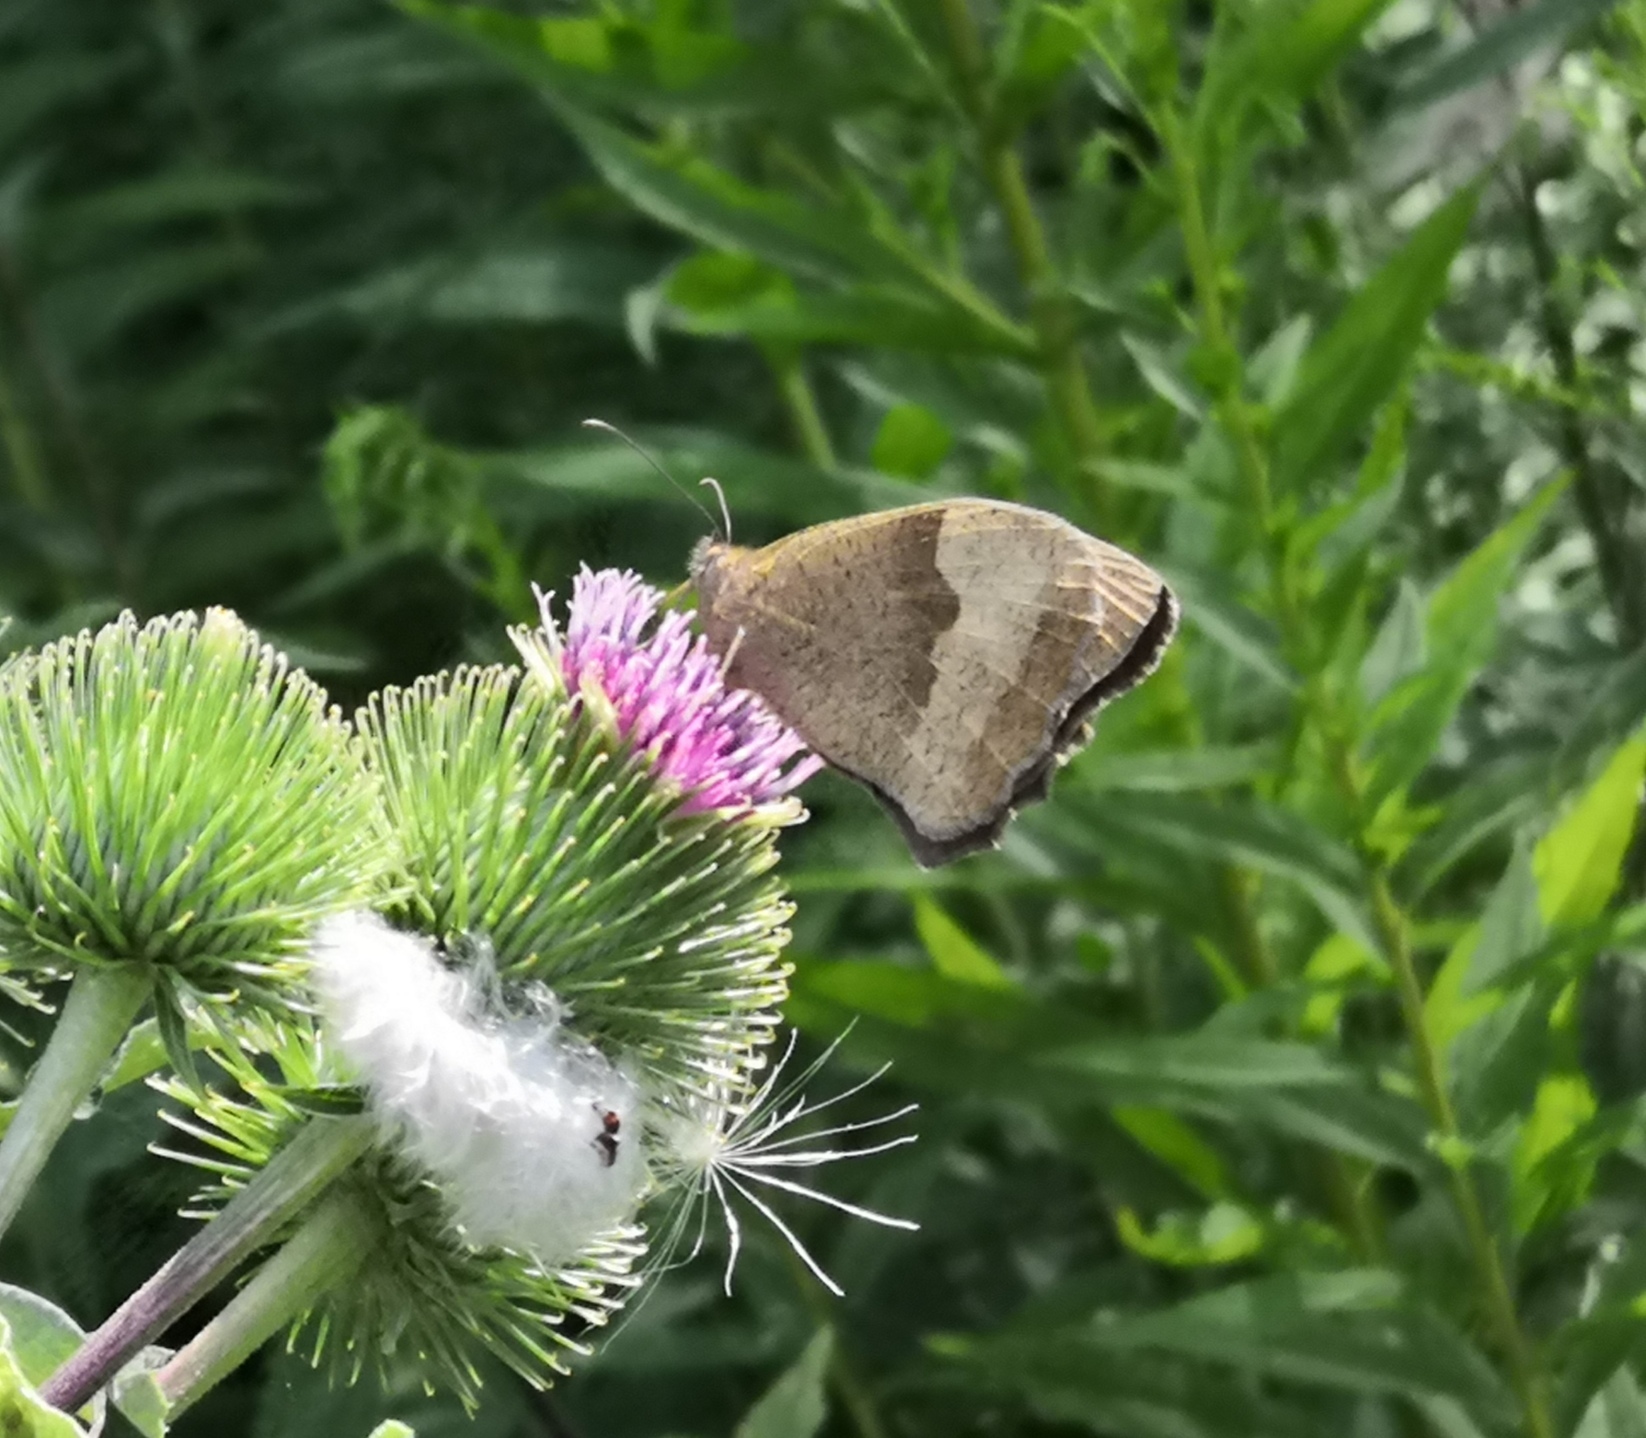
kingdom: Animalia
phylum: Arthropoda
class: Insecta
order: Lepidoptera
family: Nymphalidae
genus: Maniola
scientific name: Maniola jurtina
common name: Meadow brown
